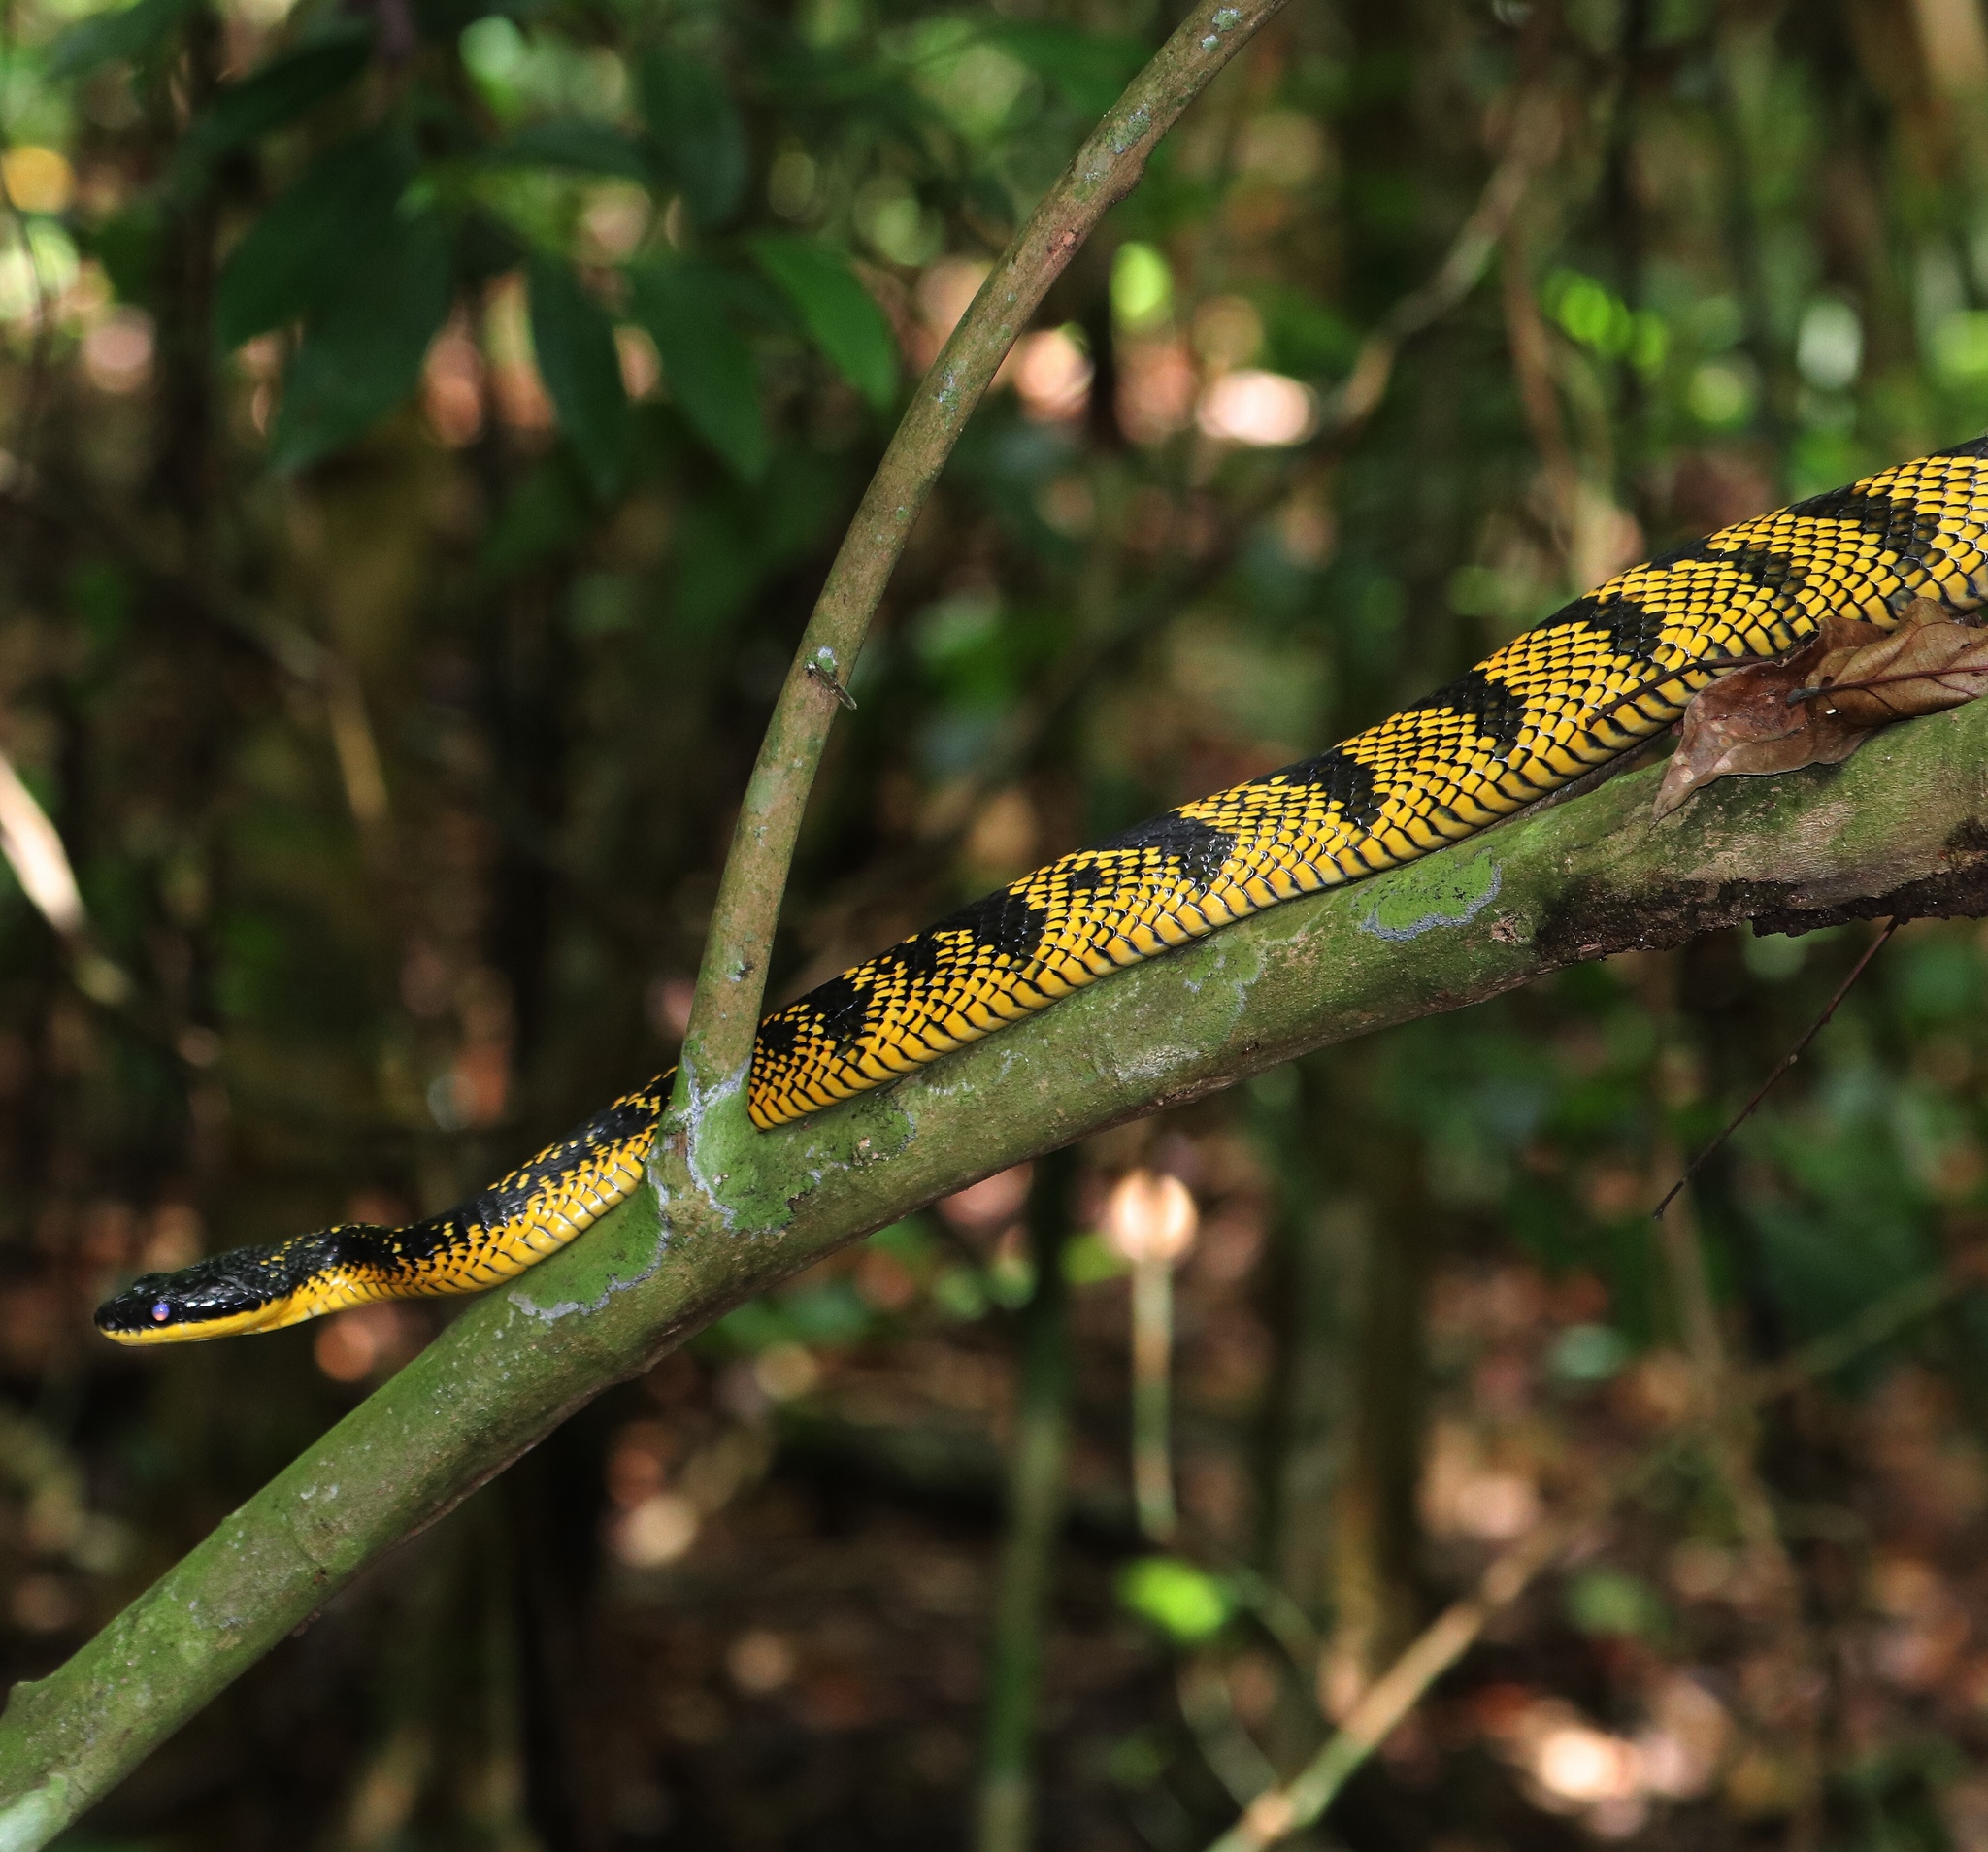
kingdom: Animalia
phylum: Chordata
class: Squamata
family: Colubridae
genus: Phrynonax
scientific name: Phrynonax poecilonotus
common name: Puffing snake
